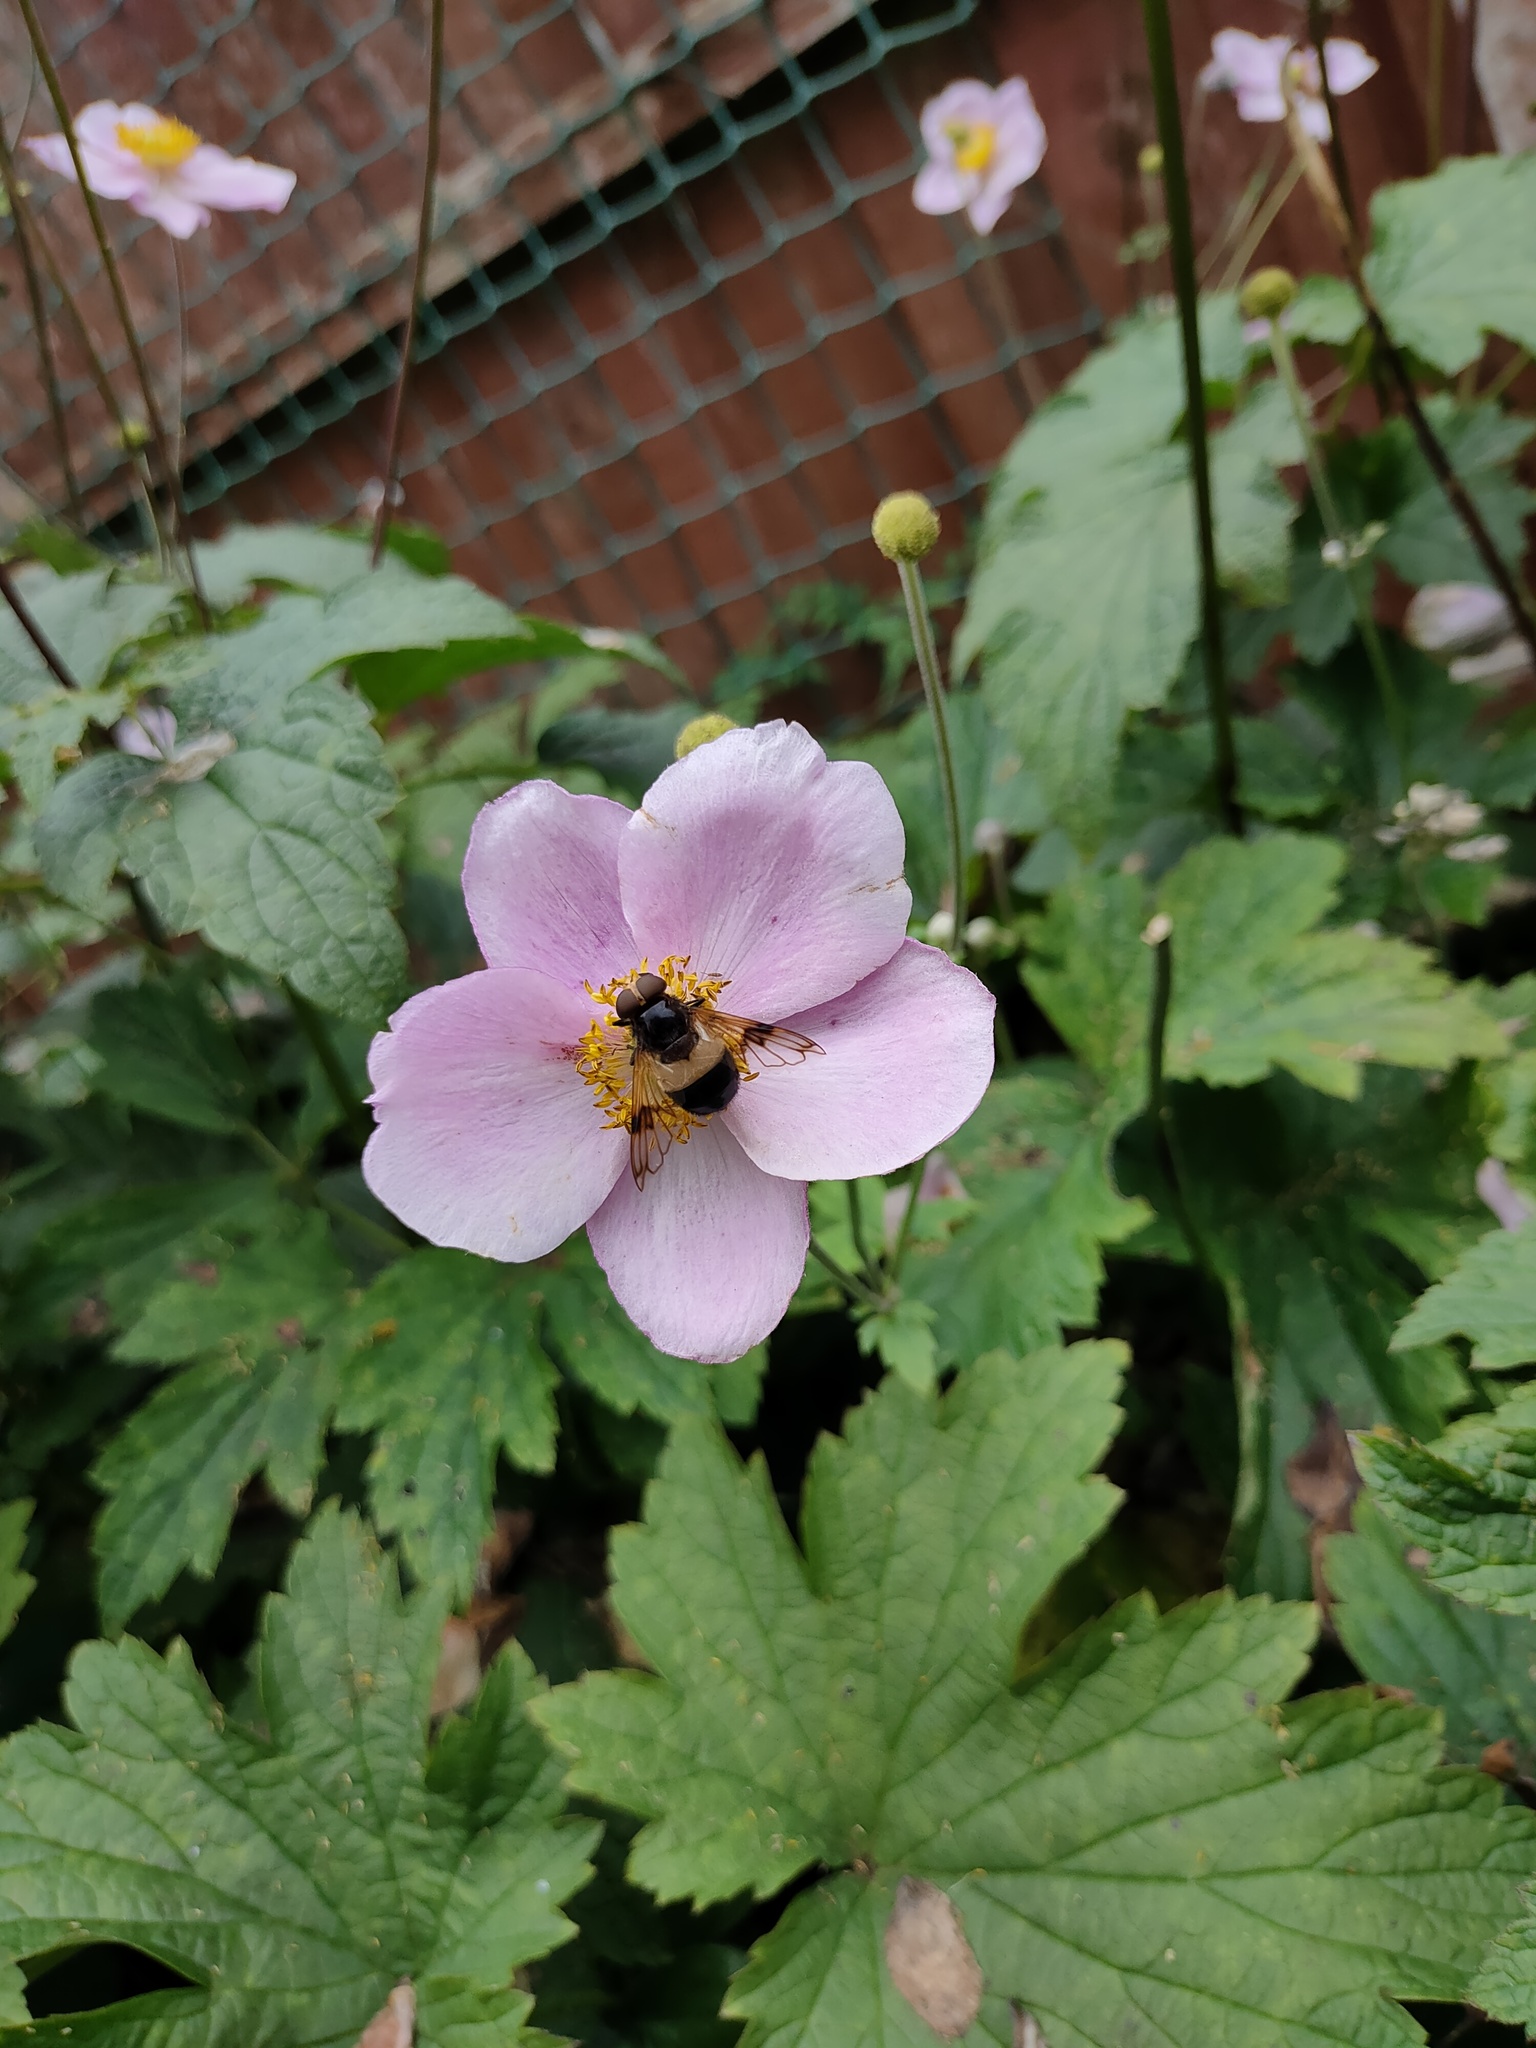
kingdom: Animalia
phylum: Arthropoda
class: Insecta
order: Diptera
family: Syrphidae
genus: Volucella
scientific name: Volucella pellucens
